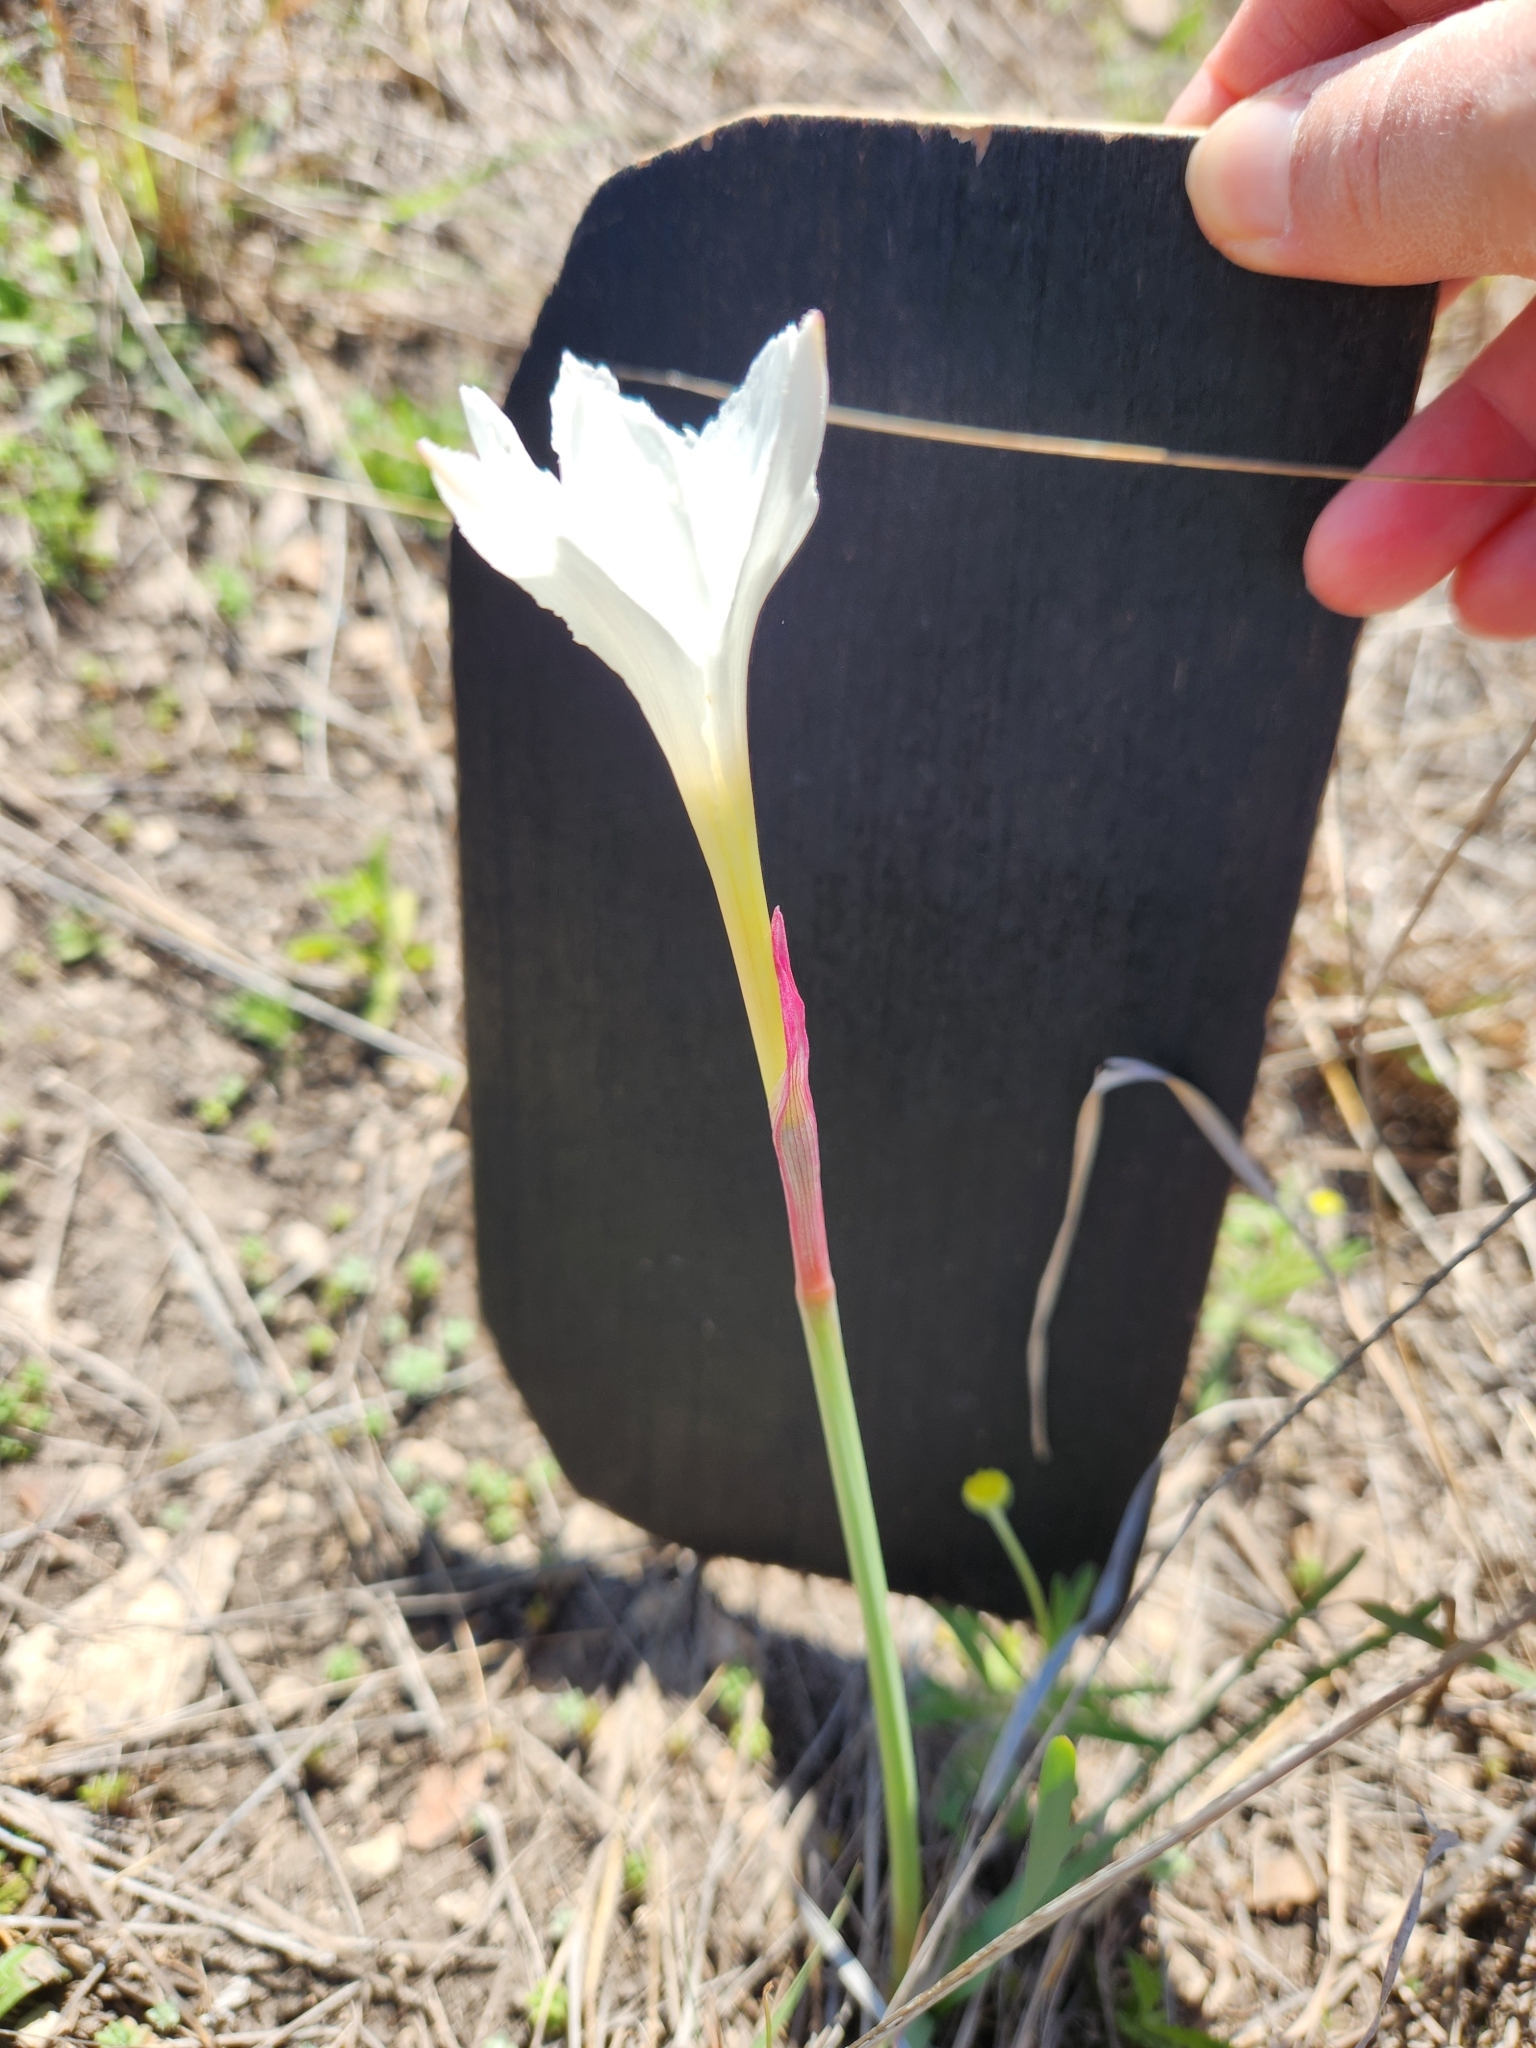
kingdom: Plantae
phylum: Tracheophyta
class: Liliopsida
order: Asparagales
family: Amaryllidaceae
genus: Zephyranthes
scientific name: Zephyranthes drummondii
